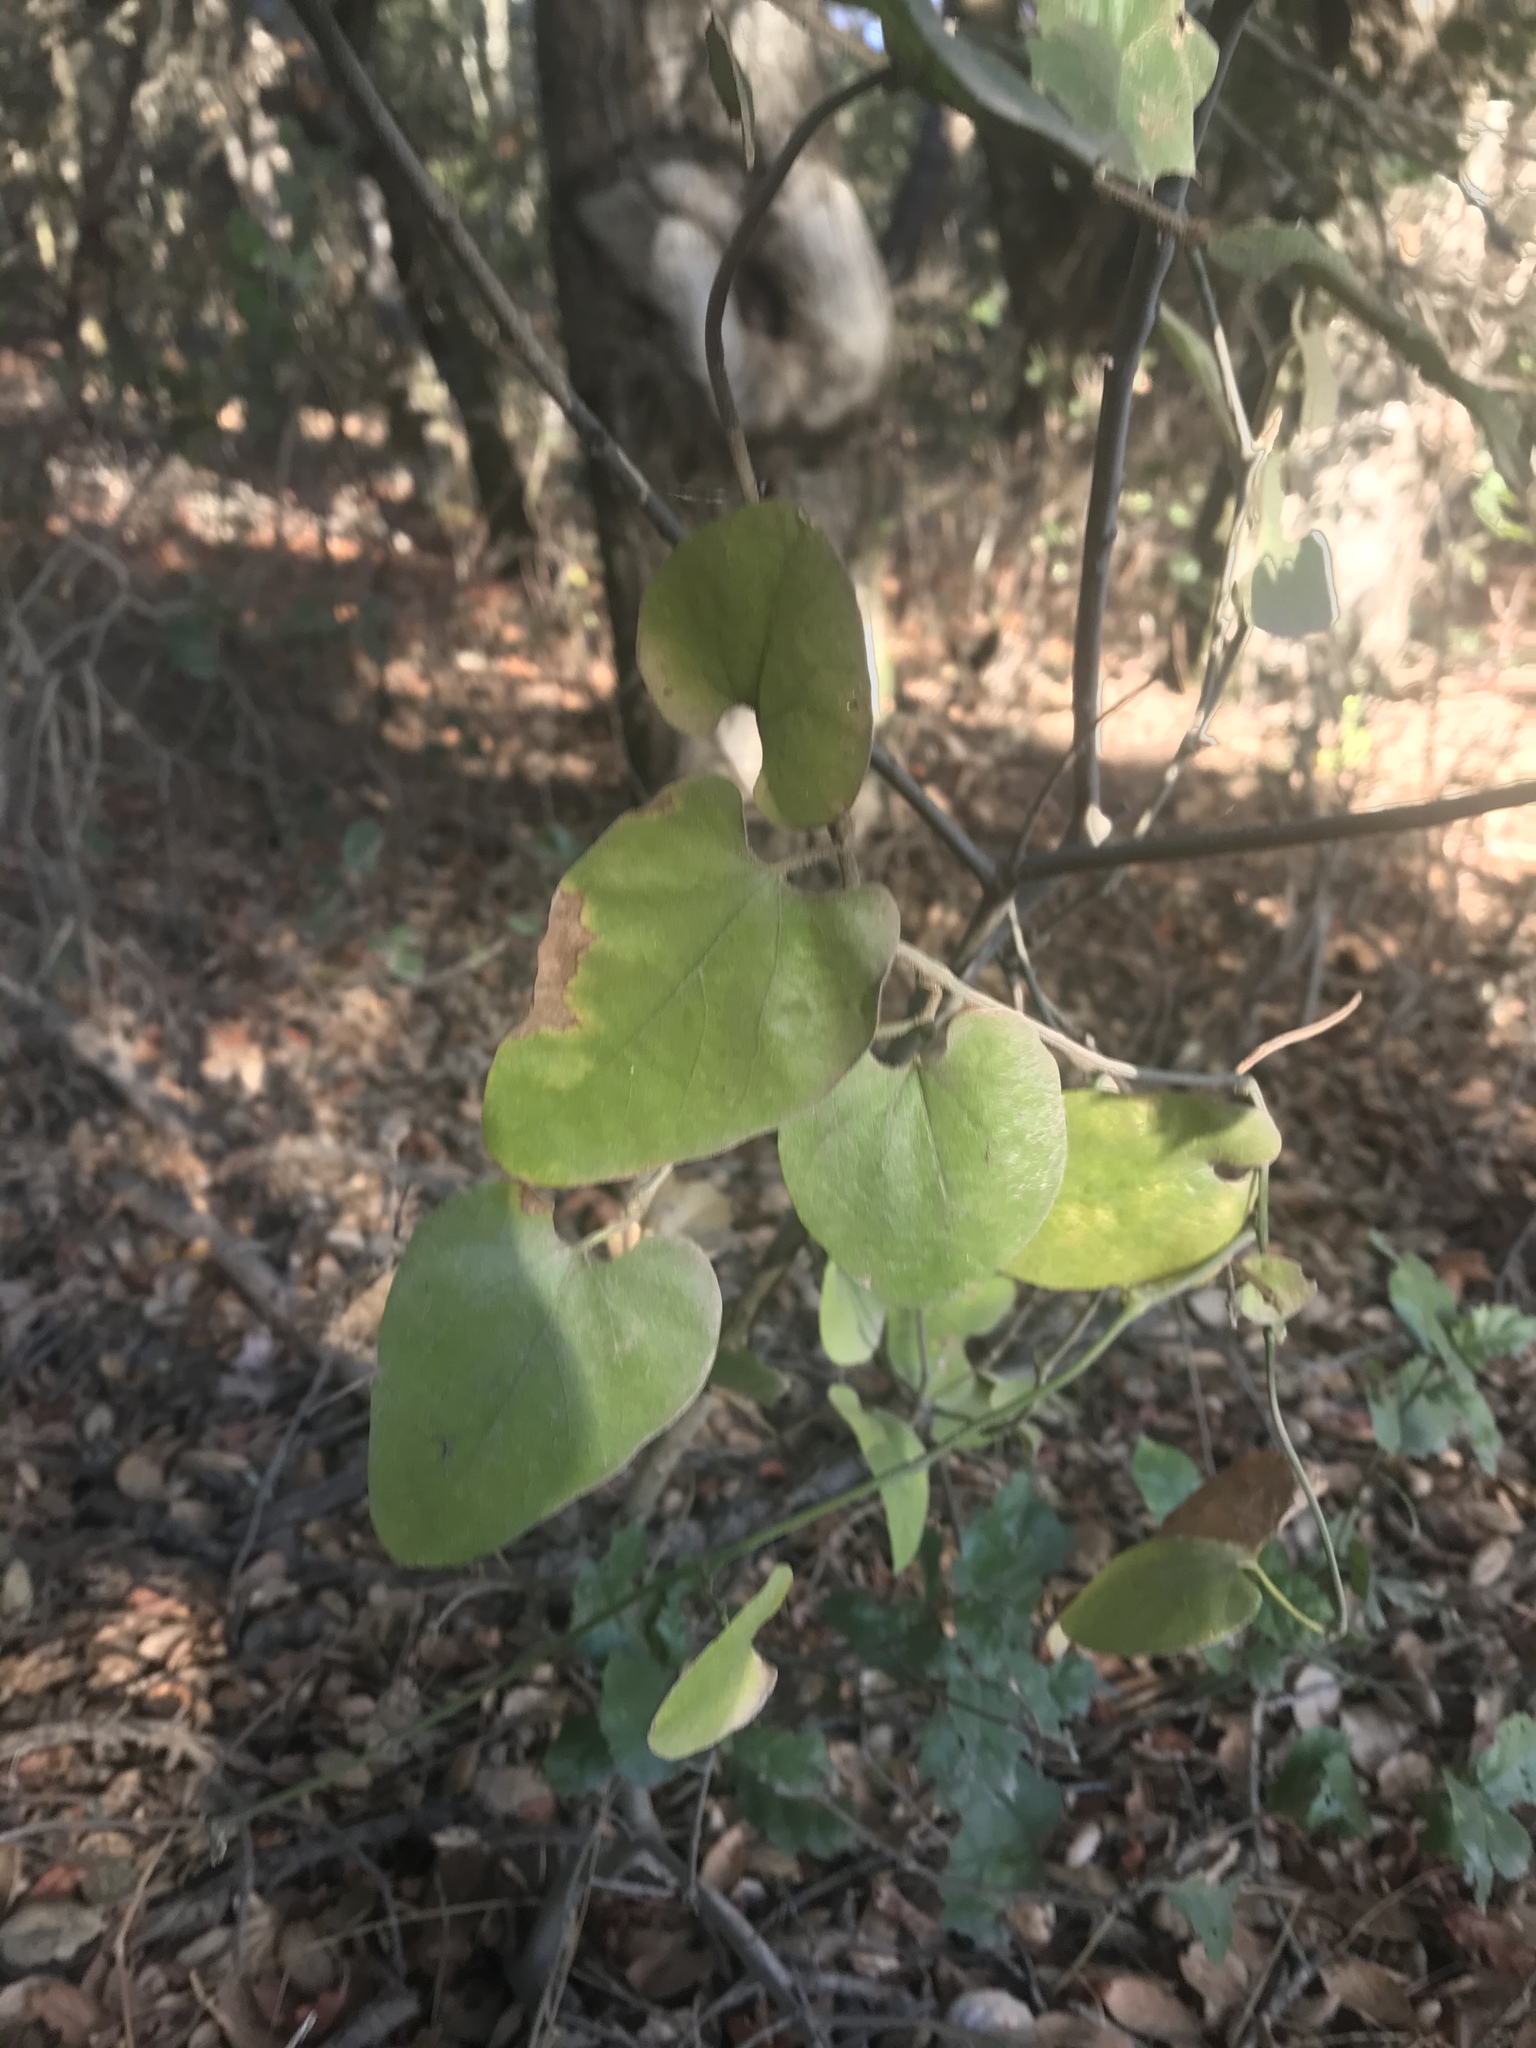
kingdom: Plantae
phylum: Tracheophyta
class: Magnoliopsida
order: Piperales
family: Aristolochiaceae
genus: Isotrema
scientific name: Isotrema californicum
